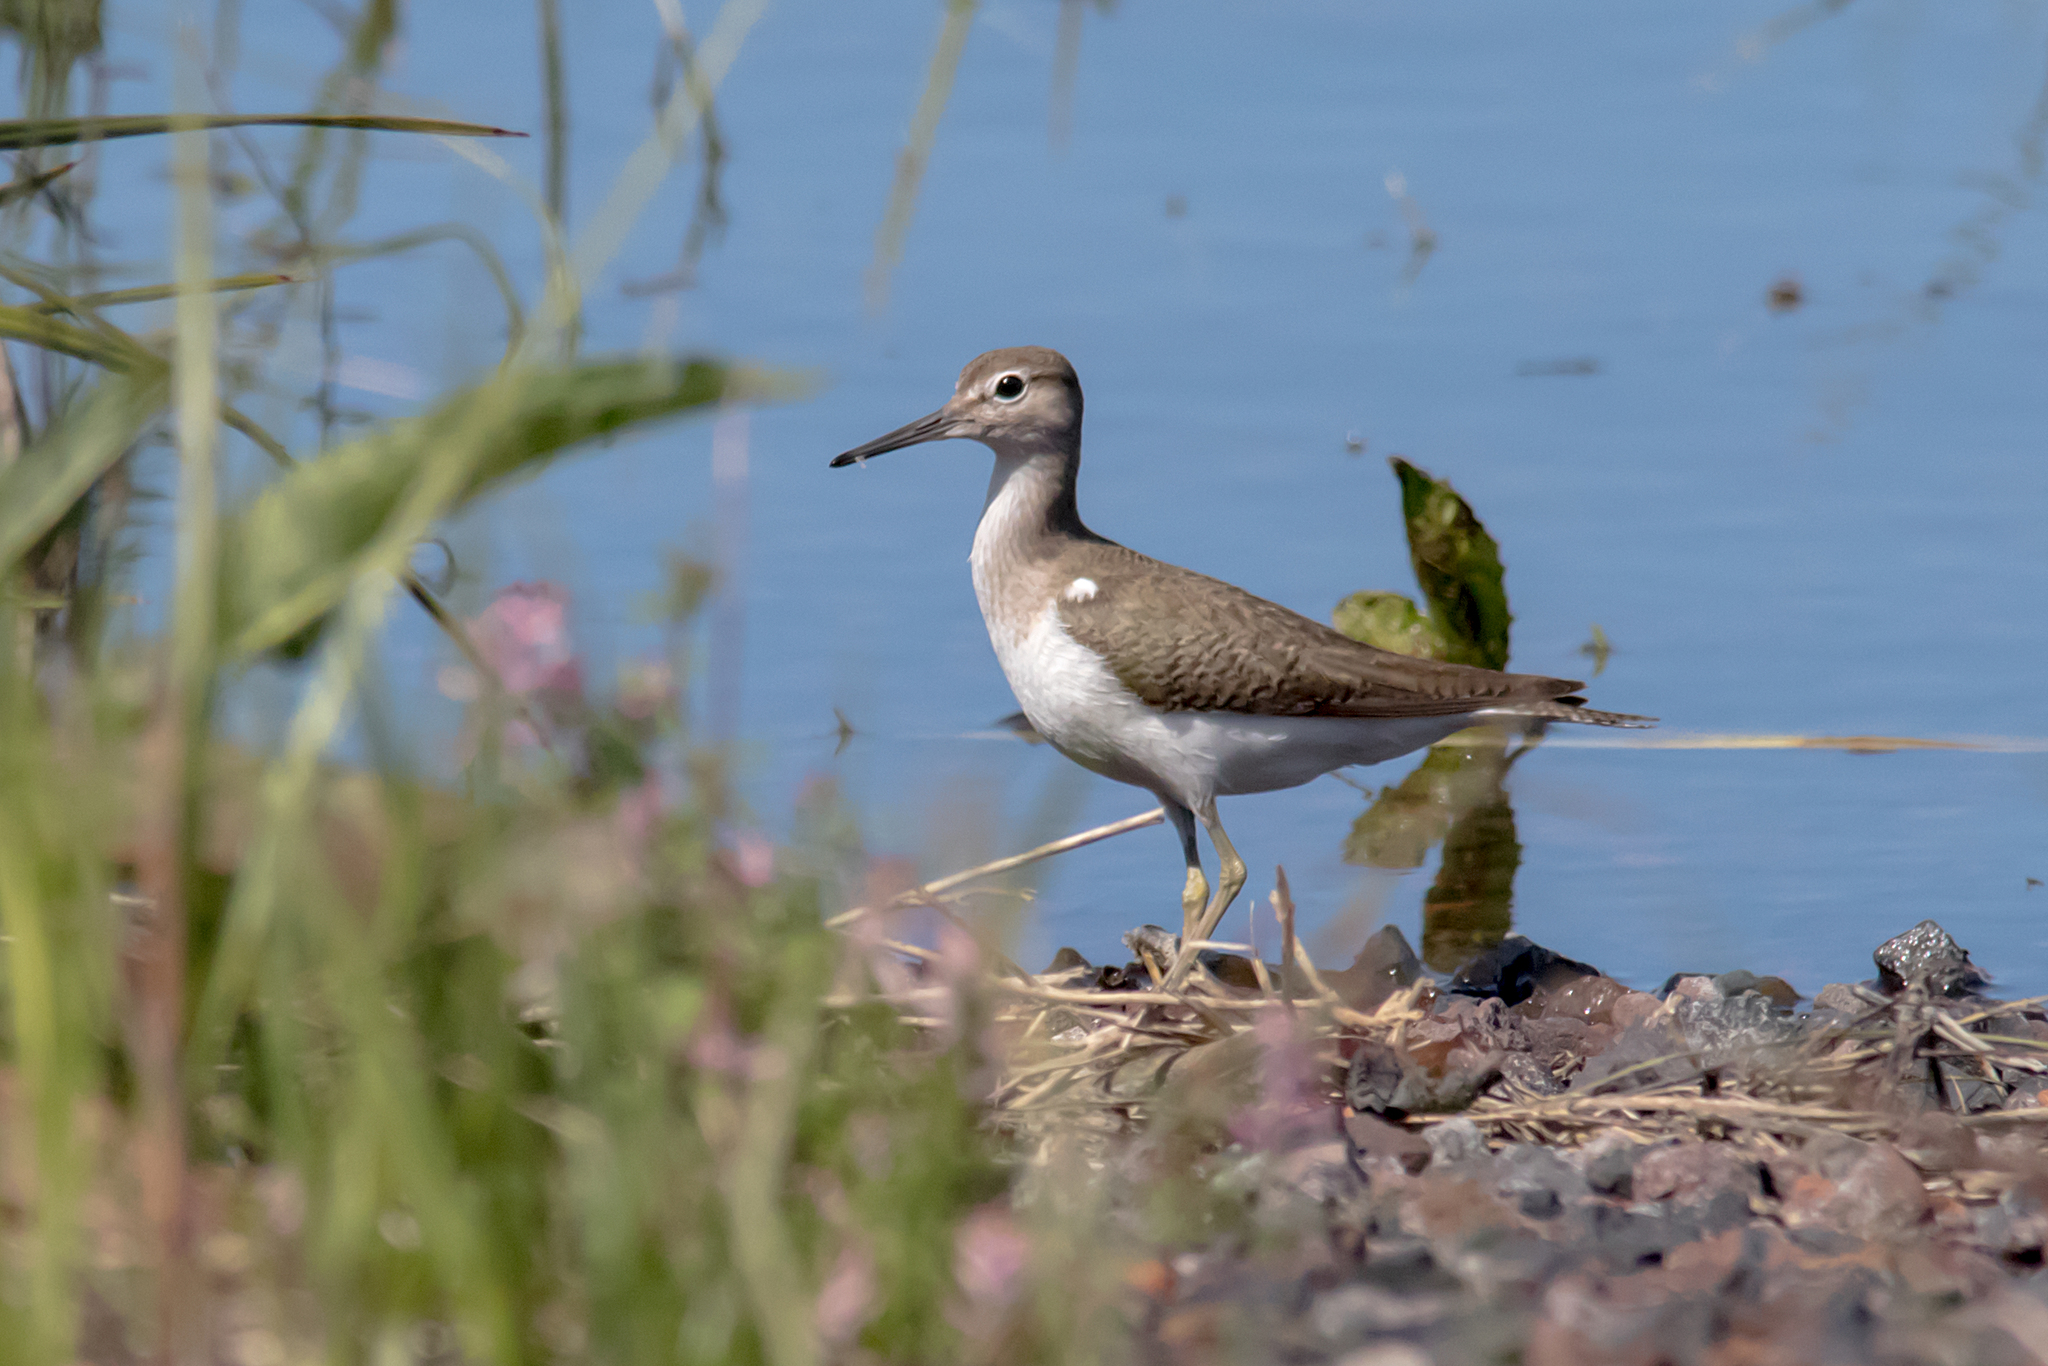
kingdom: Animalia
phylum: Chordata
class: Aves
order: Charadriiformes
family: Scolopacidae
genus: Actitis
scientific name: Actitis hypoleucos
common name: Common sandpiper
